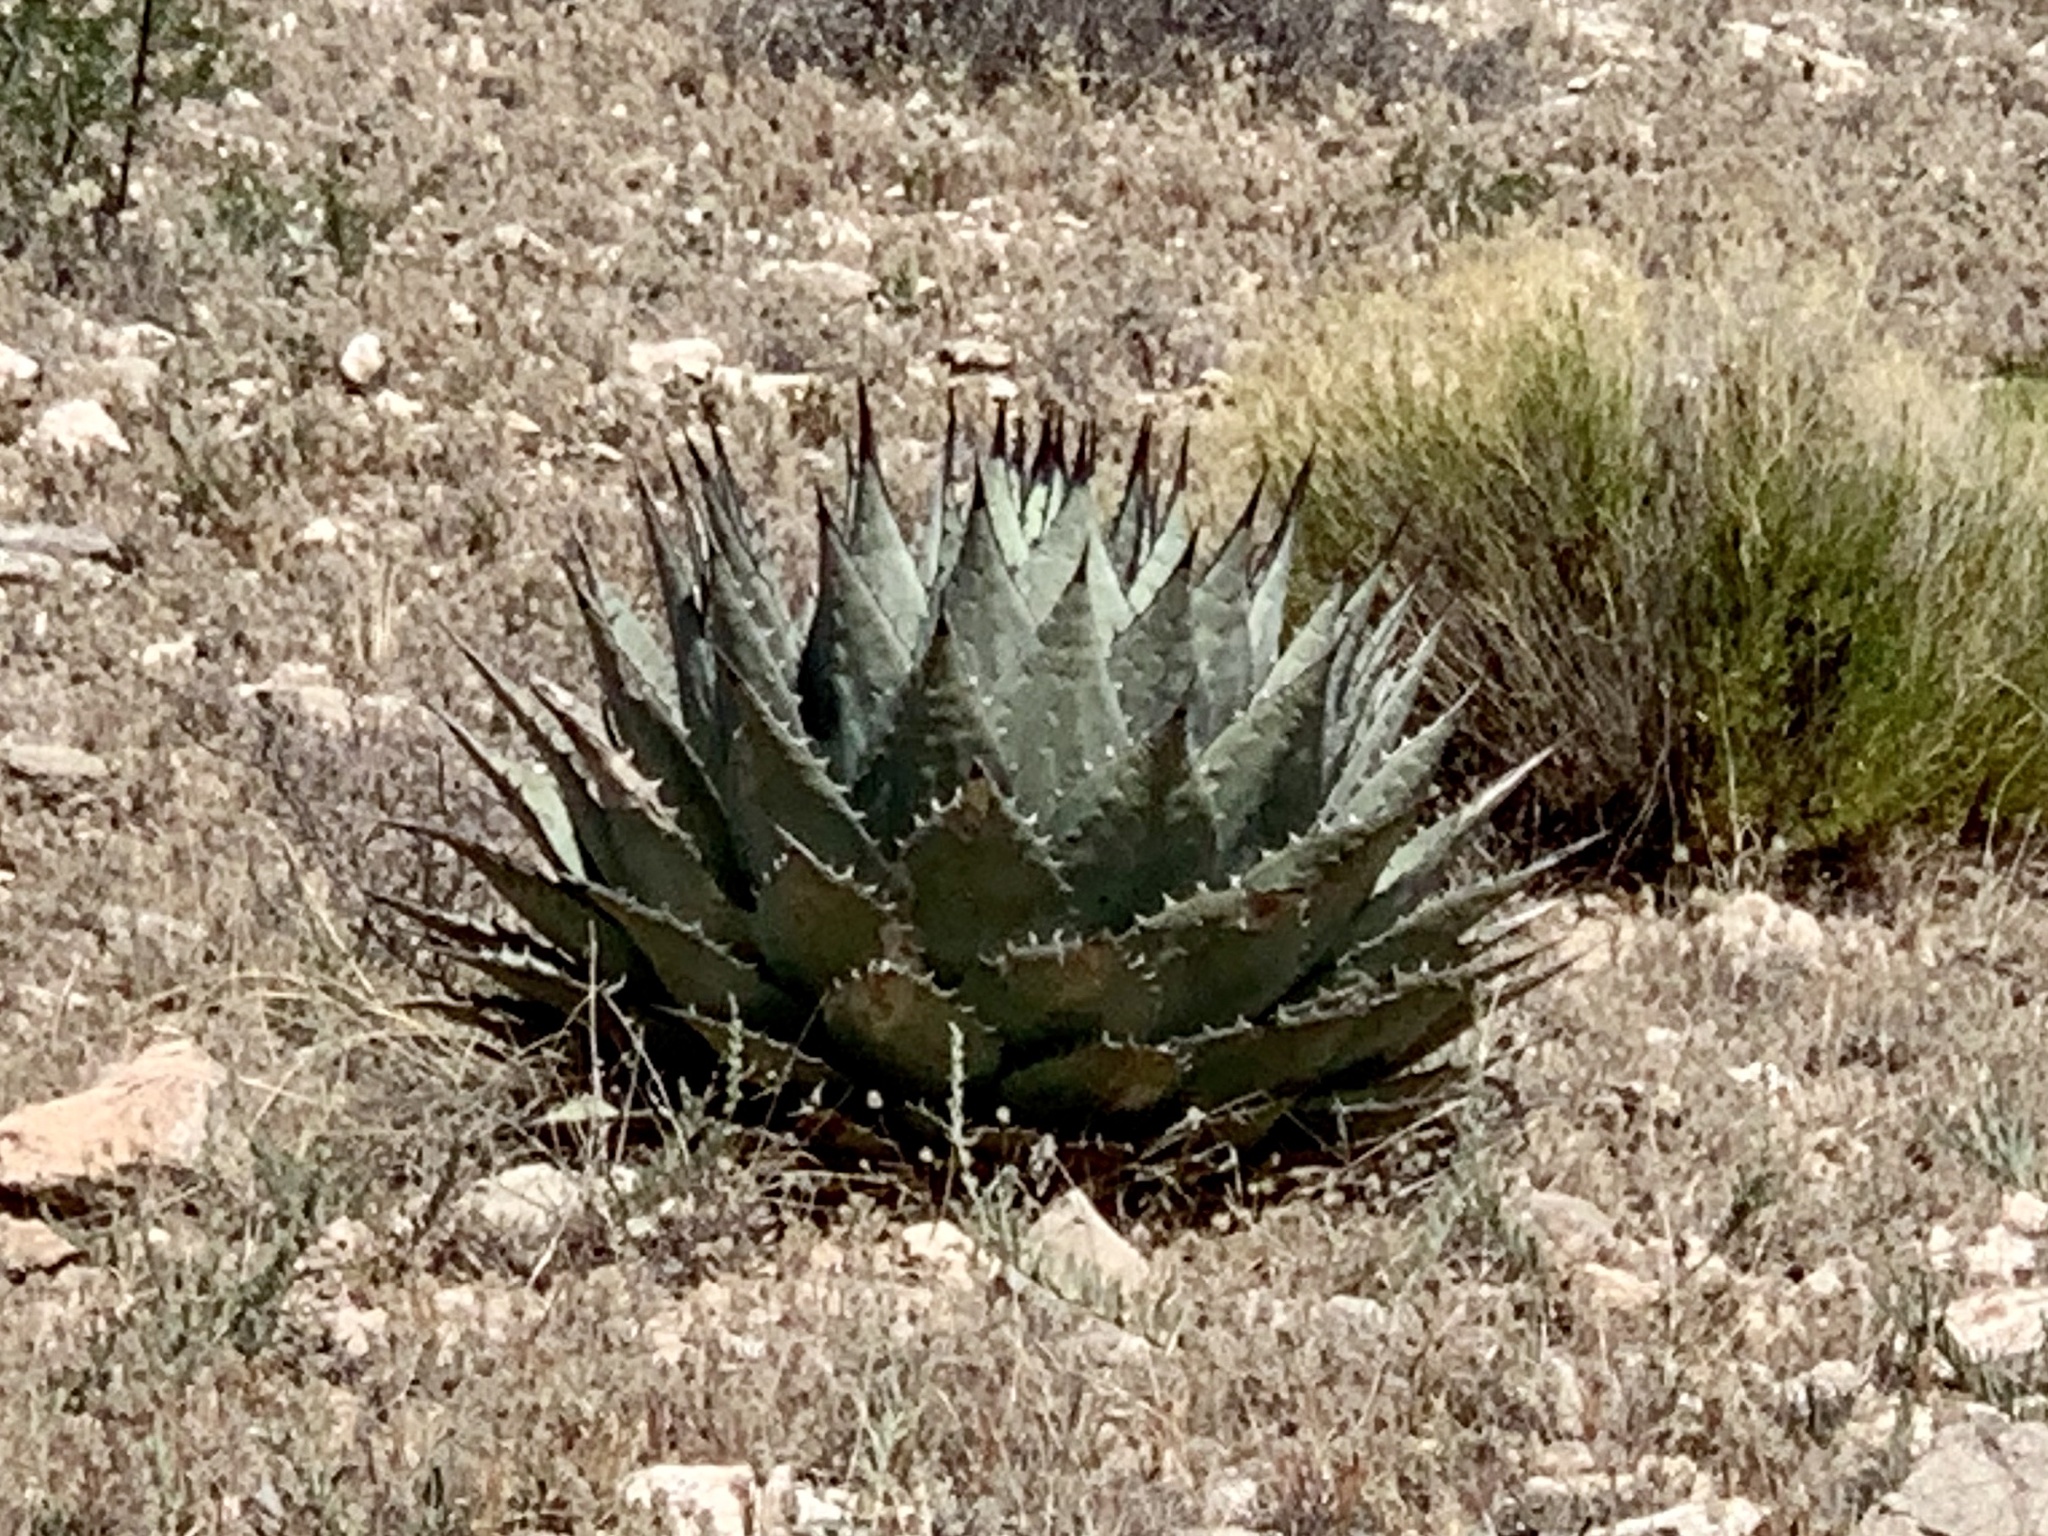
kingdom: Plantae
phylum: Tracheophyta
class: Liliopsida
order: Asparagales
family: Asparagaceae
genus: Agave
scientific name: Agave parryi
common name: Parry's agave
